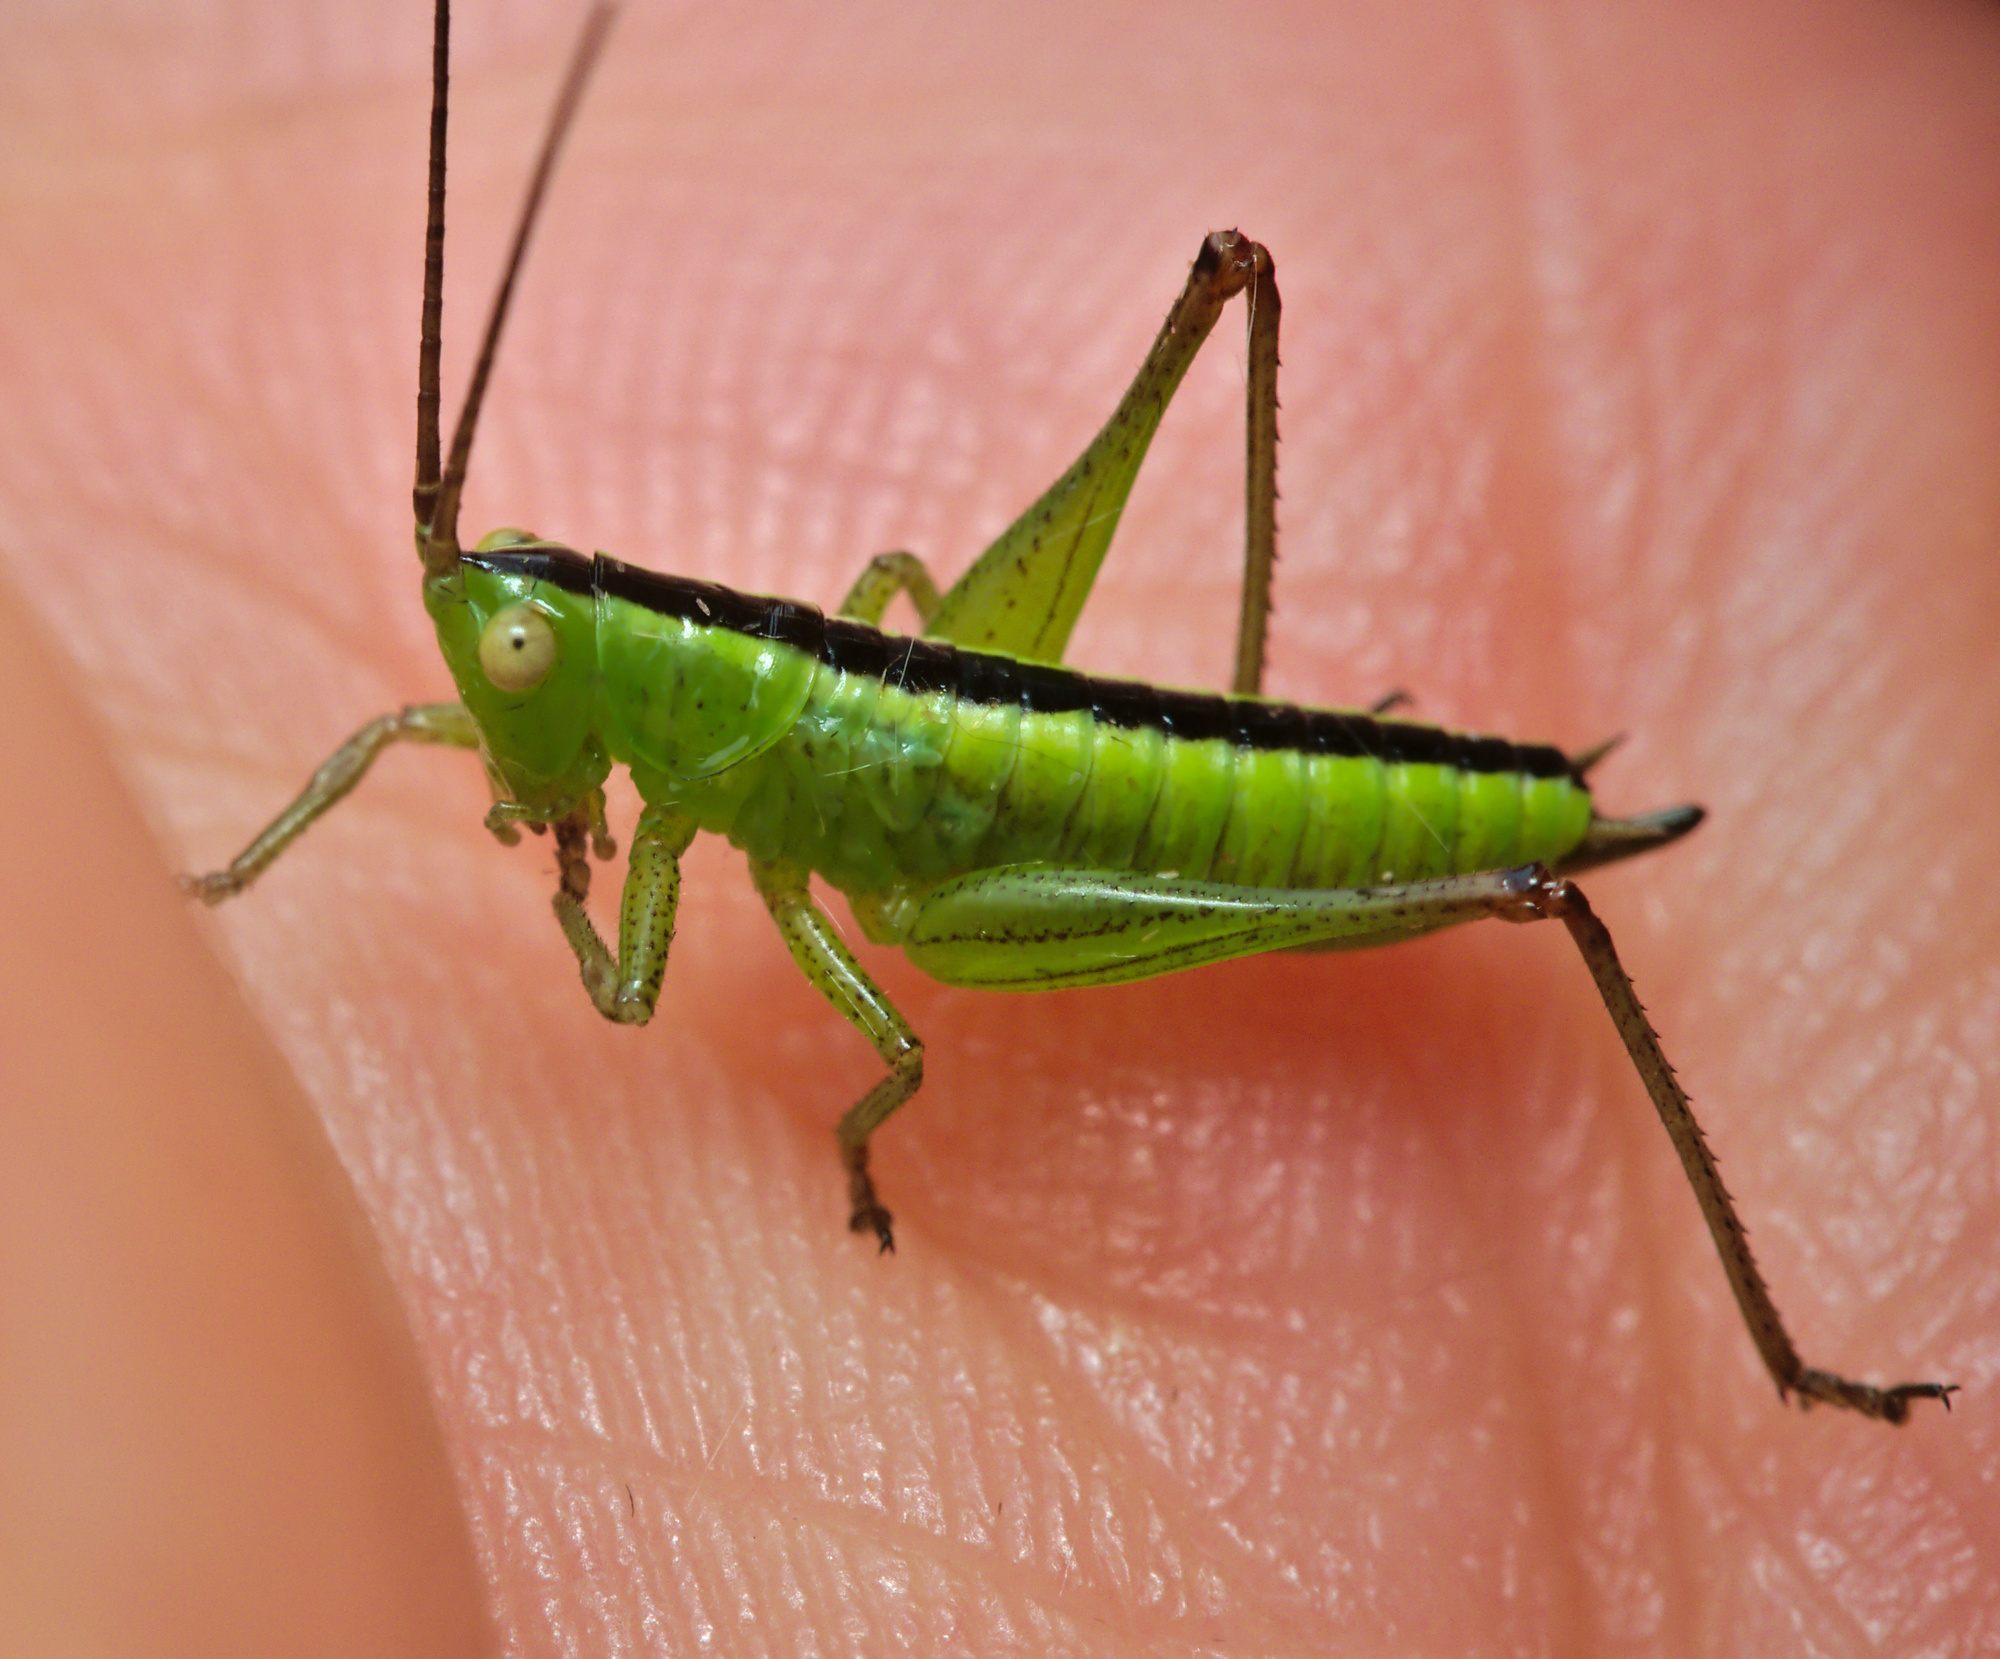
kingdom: Animalia
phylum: Arthropoda
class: Insecta
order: Orthoptera
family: Tettigoniidae
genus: Conocephalus
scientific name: Conocephalus
